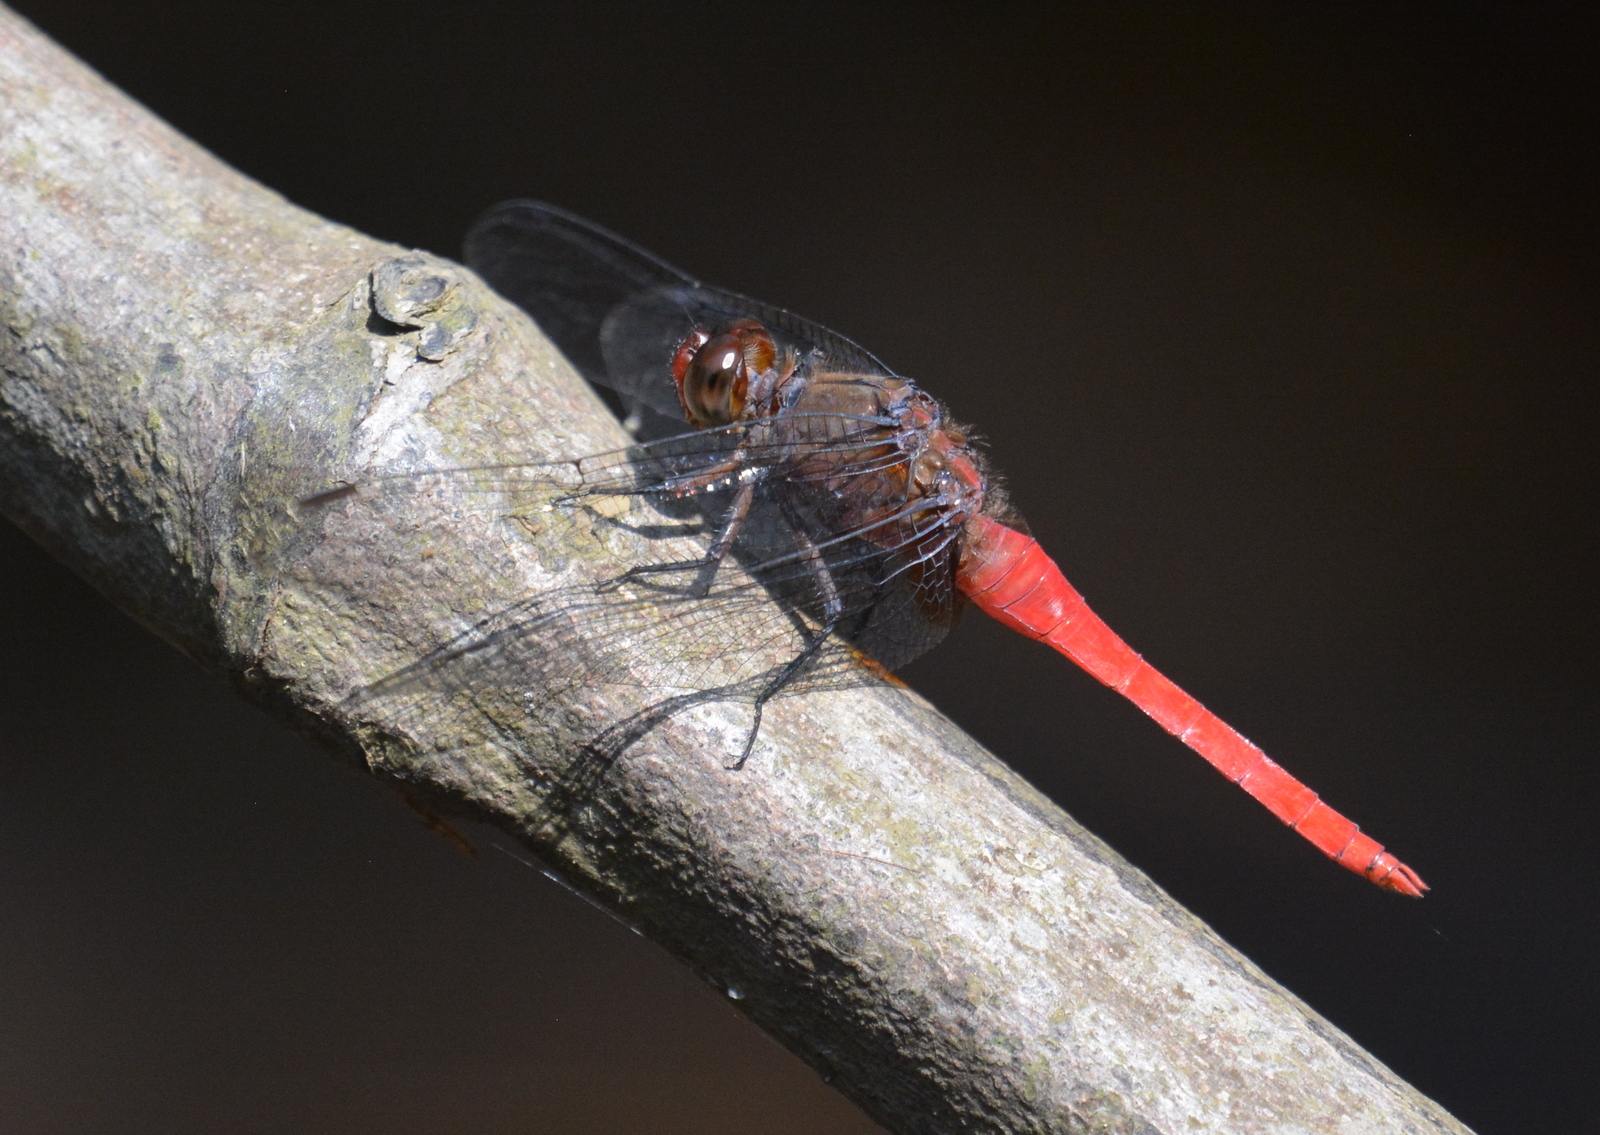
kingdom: Animalia
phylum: Arthropoda
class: Insecta
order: Odonata
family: Libellulidae
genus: Orthetrum
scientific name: Orthetrum chrysis
